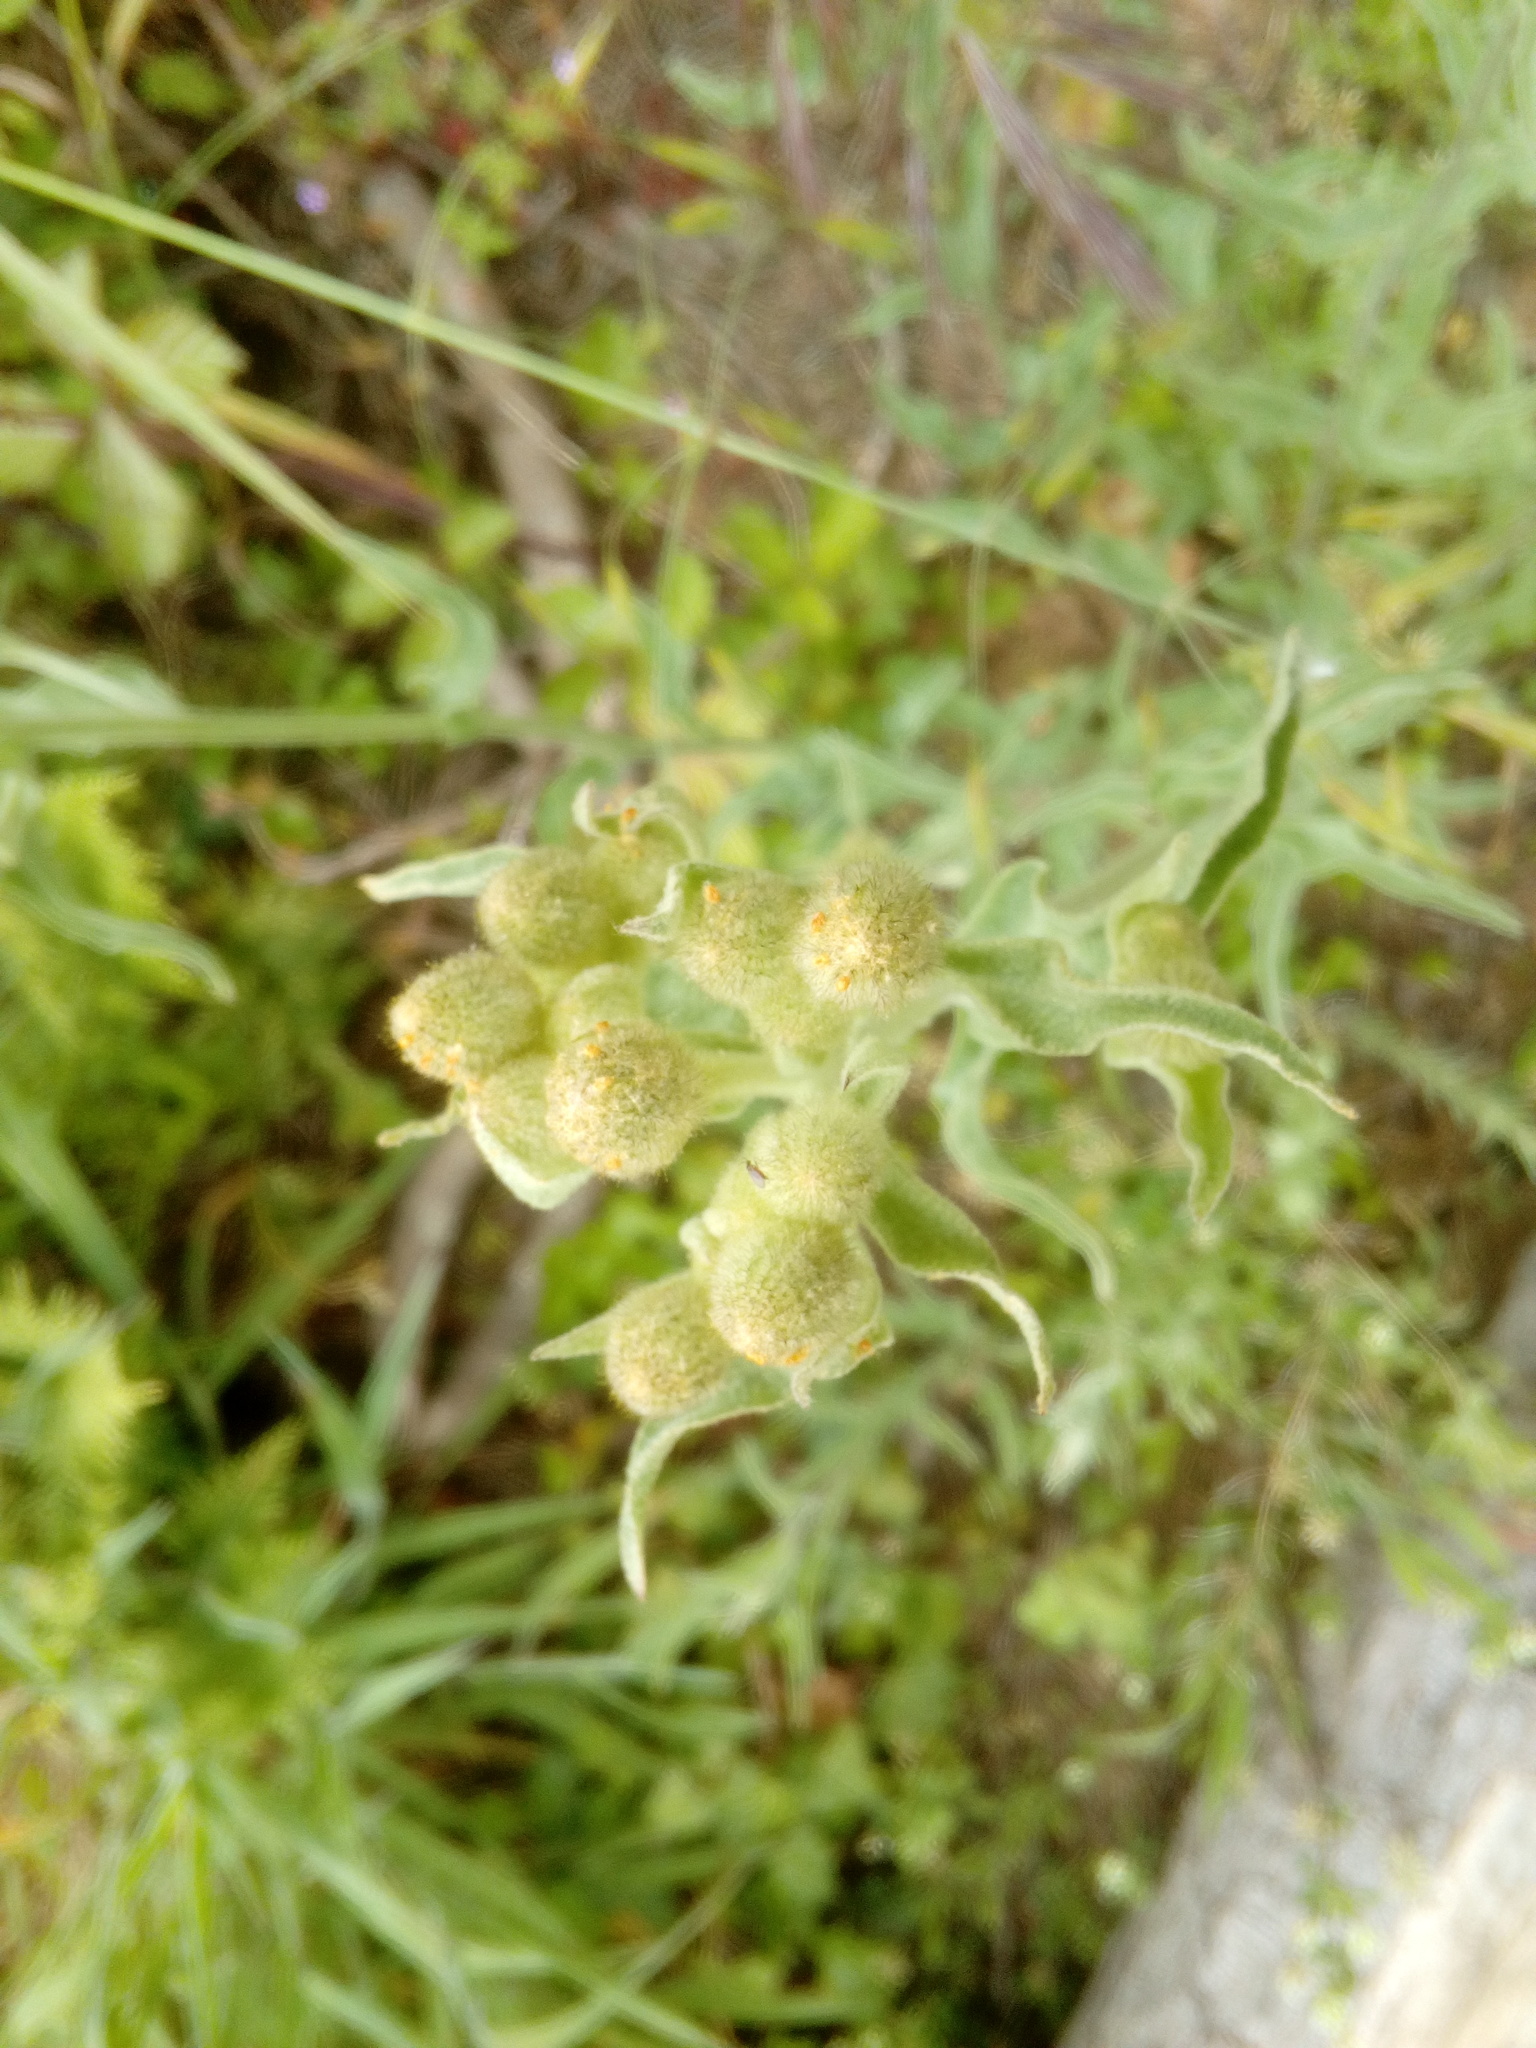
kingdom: Plantae
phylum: Tracheophyta
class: Magnoliopsida
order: Asterales
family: Asteraceae
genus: Andryala
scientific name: Andryala integrifolia
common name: Common andryala
